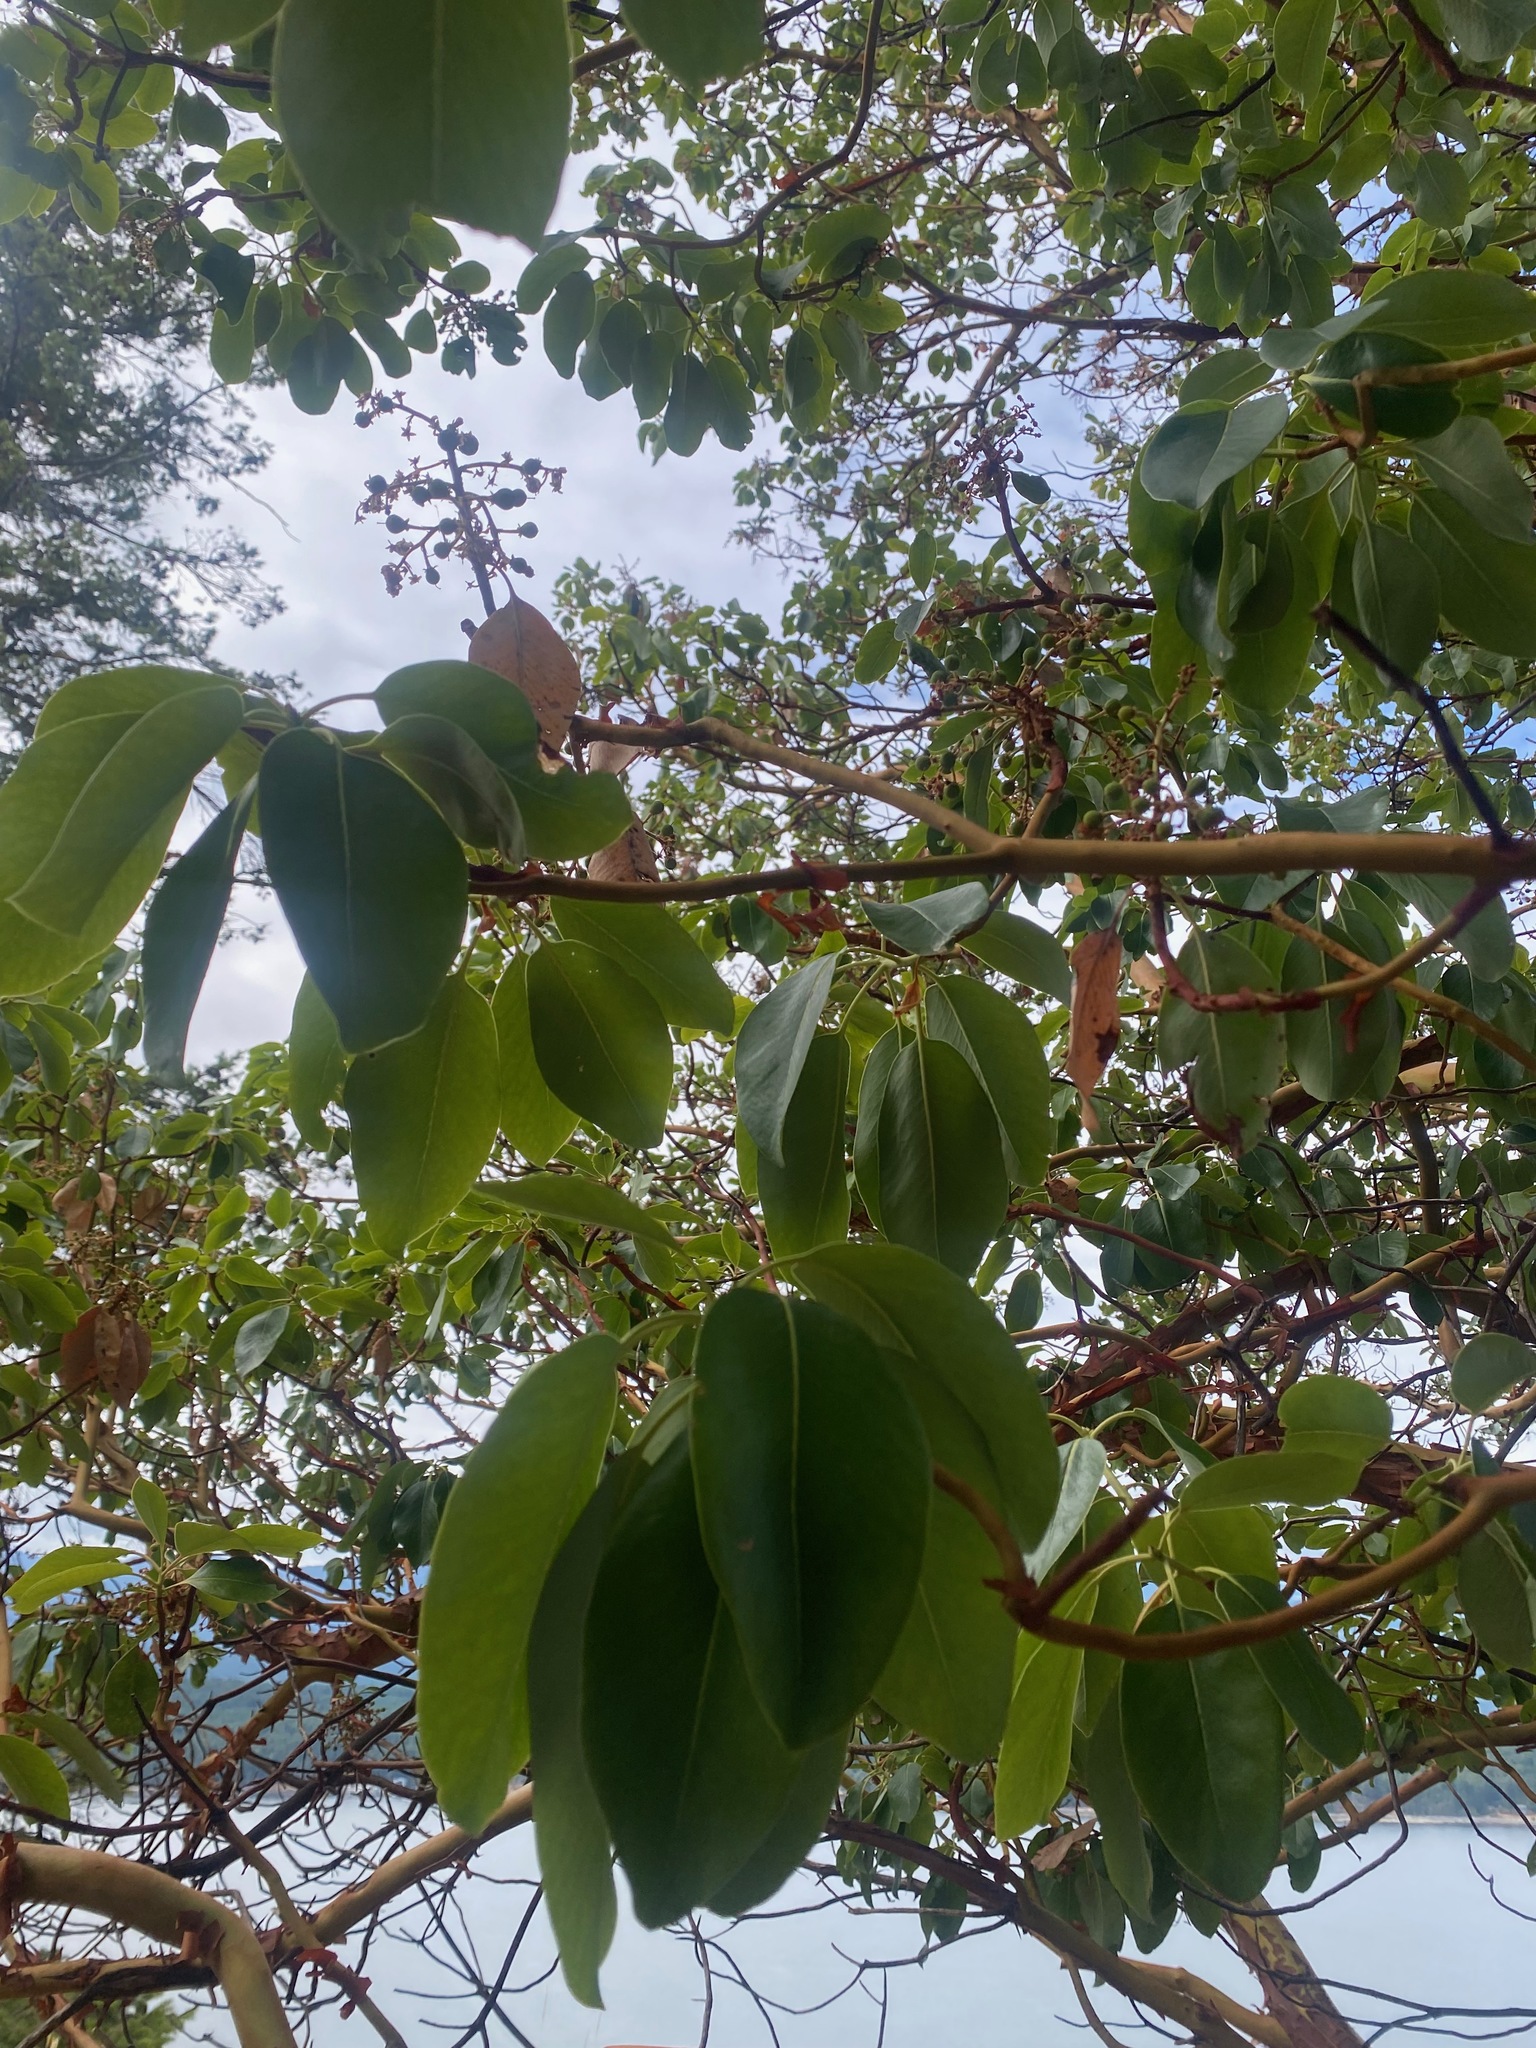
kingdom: Plantae
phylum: Tracheophyta
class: Magnoliopsida
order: Ericales
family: Ericaceae
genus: Arbutus
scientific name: Arbutus menziesii
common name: Pacific madrone
